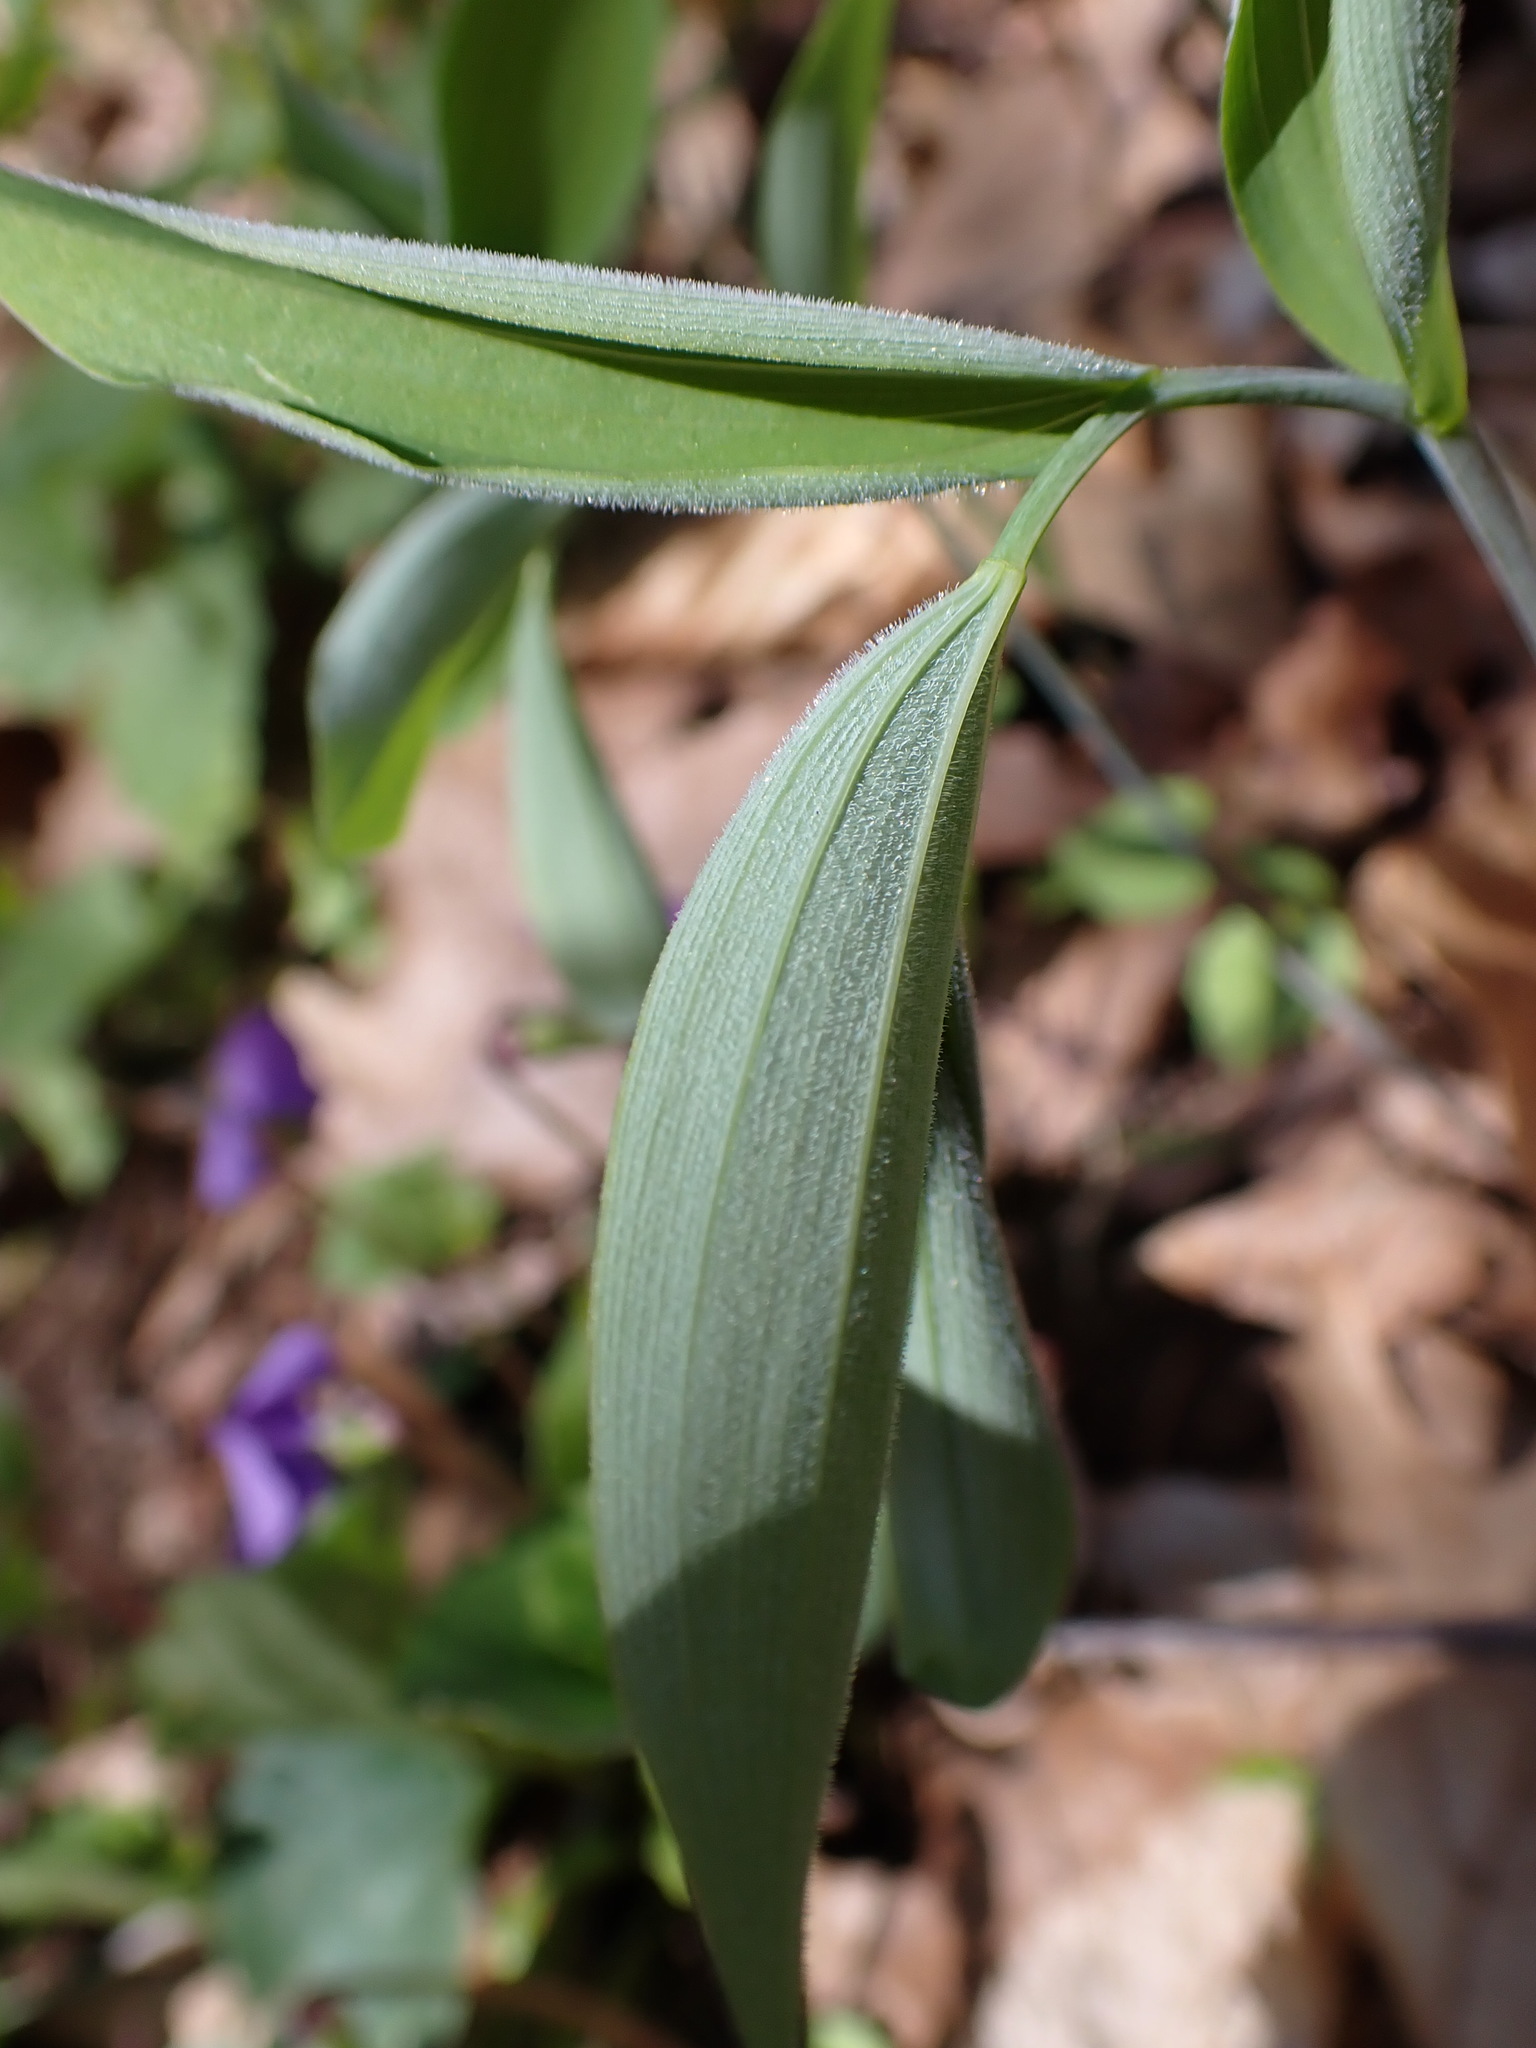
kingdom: Plantae
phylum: Tracheophyta
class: Liliopsida
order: Asparagales
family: Asparagaceae
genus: Polygonatum
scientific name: Polygonatum pubescens
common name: Downy solomon's seal
